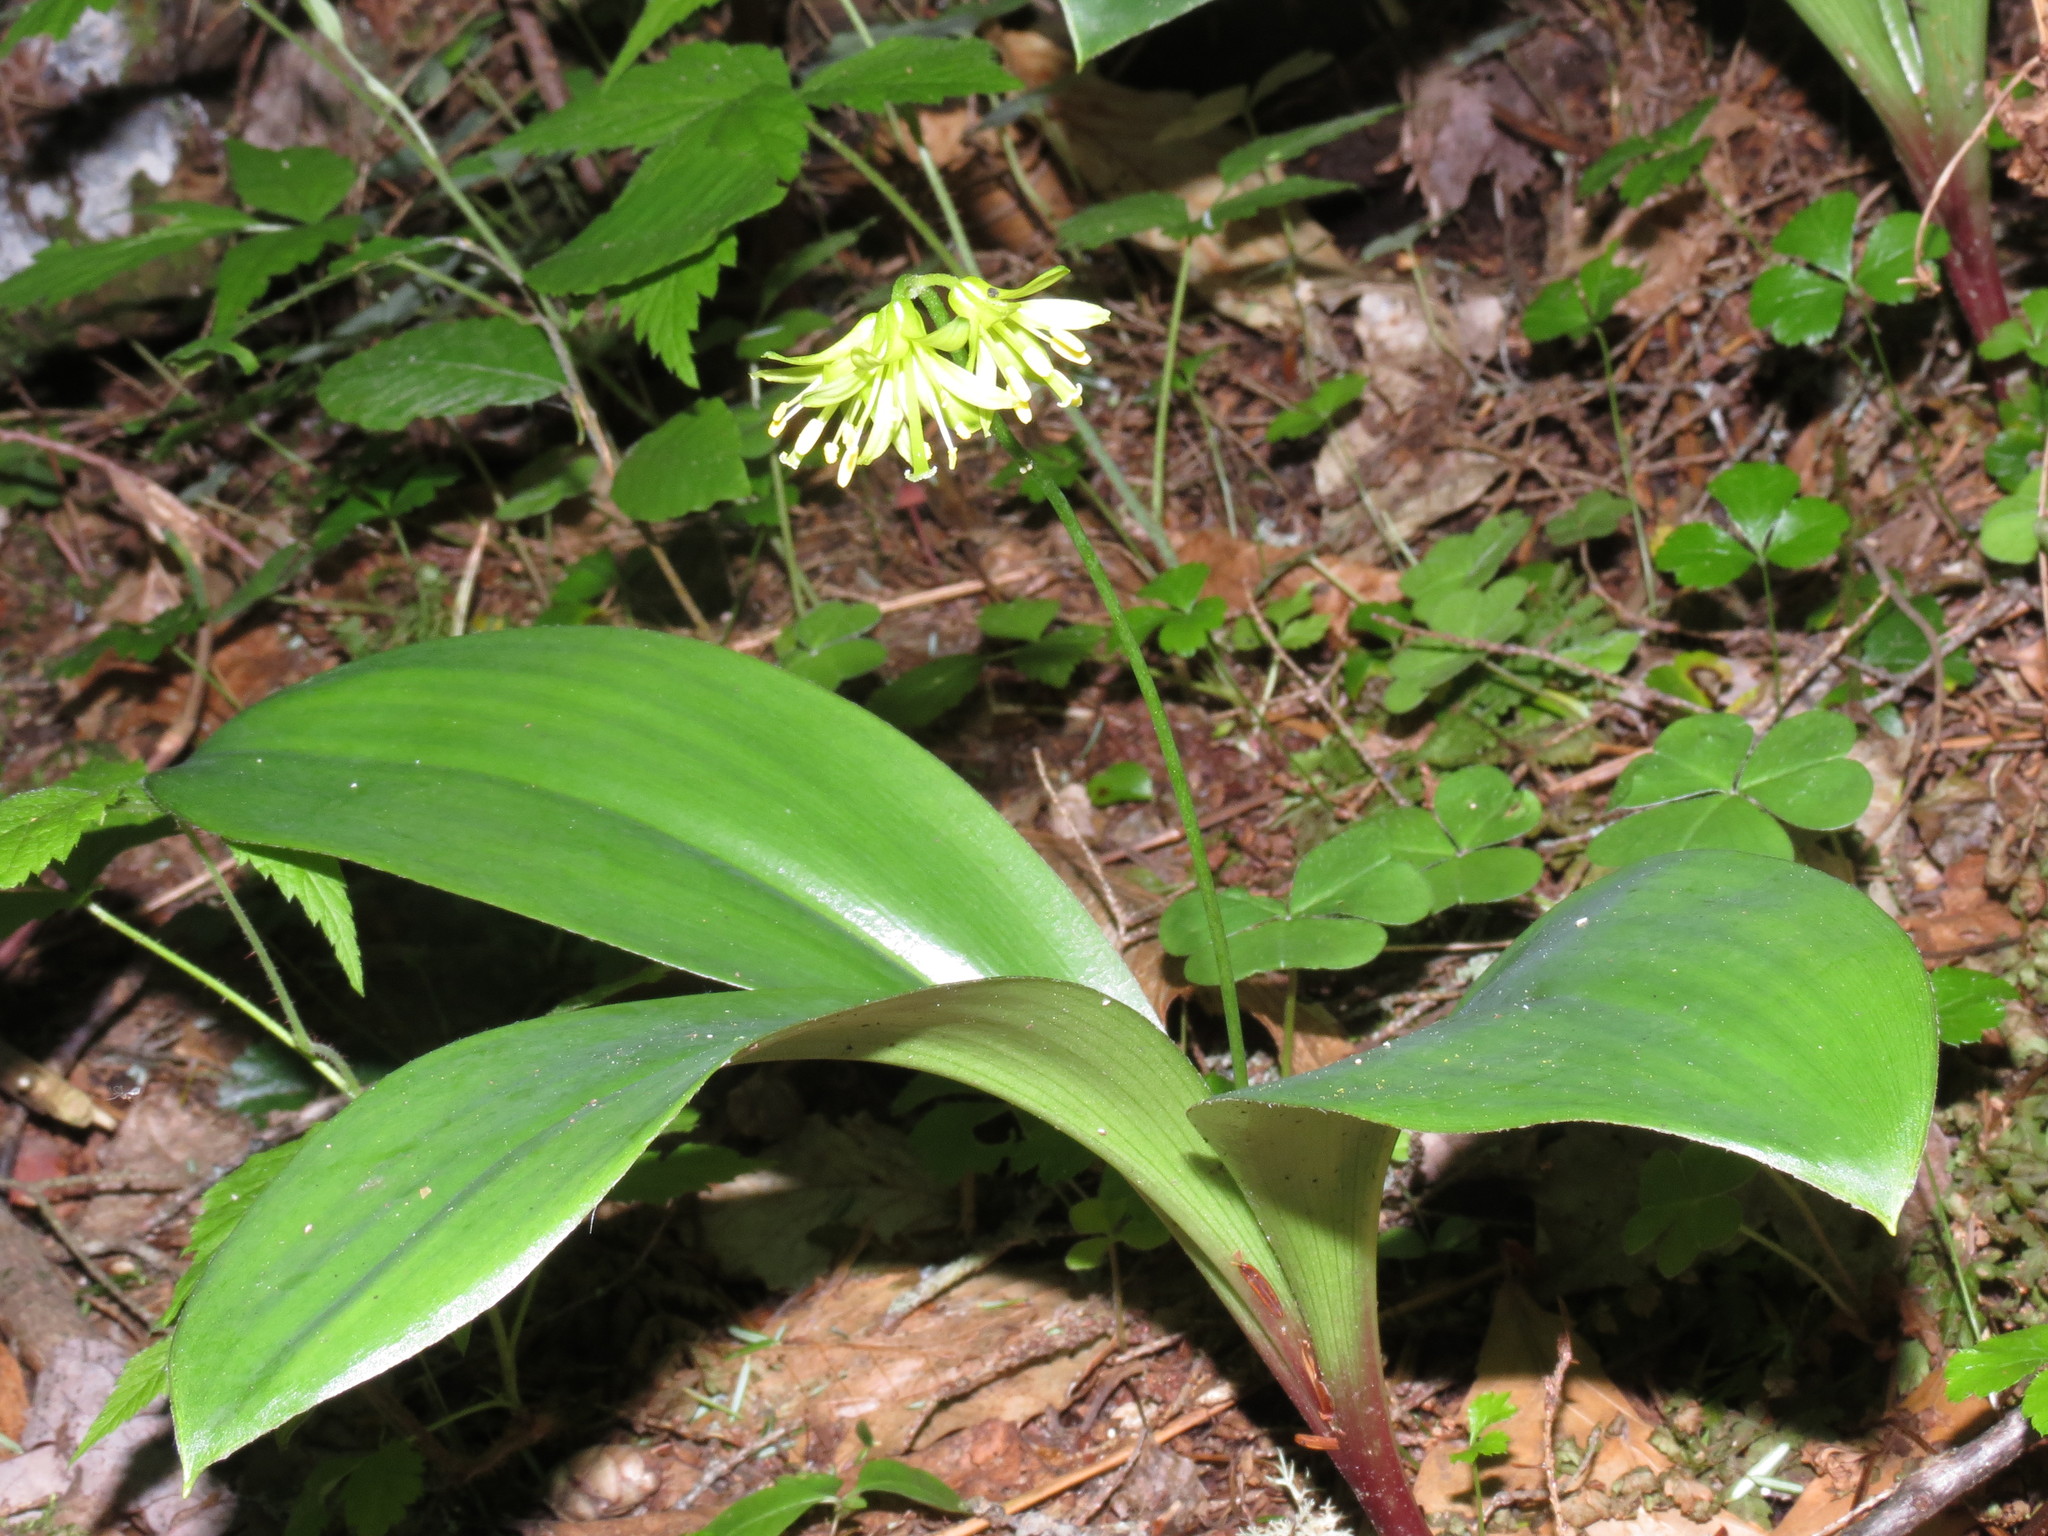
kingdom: Plantae
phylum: Tracheophyta
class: Liliopsida
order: Liliales
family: Liliaceae
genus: Clintonia
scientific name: Clintonia borealis
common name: Yellow clintonia
